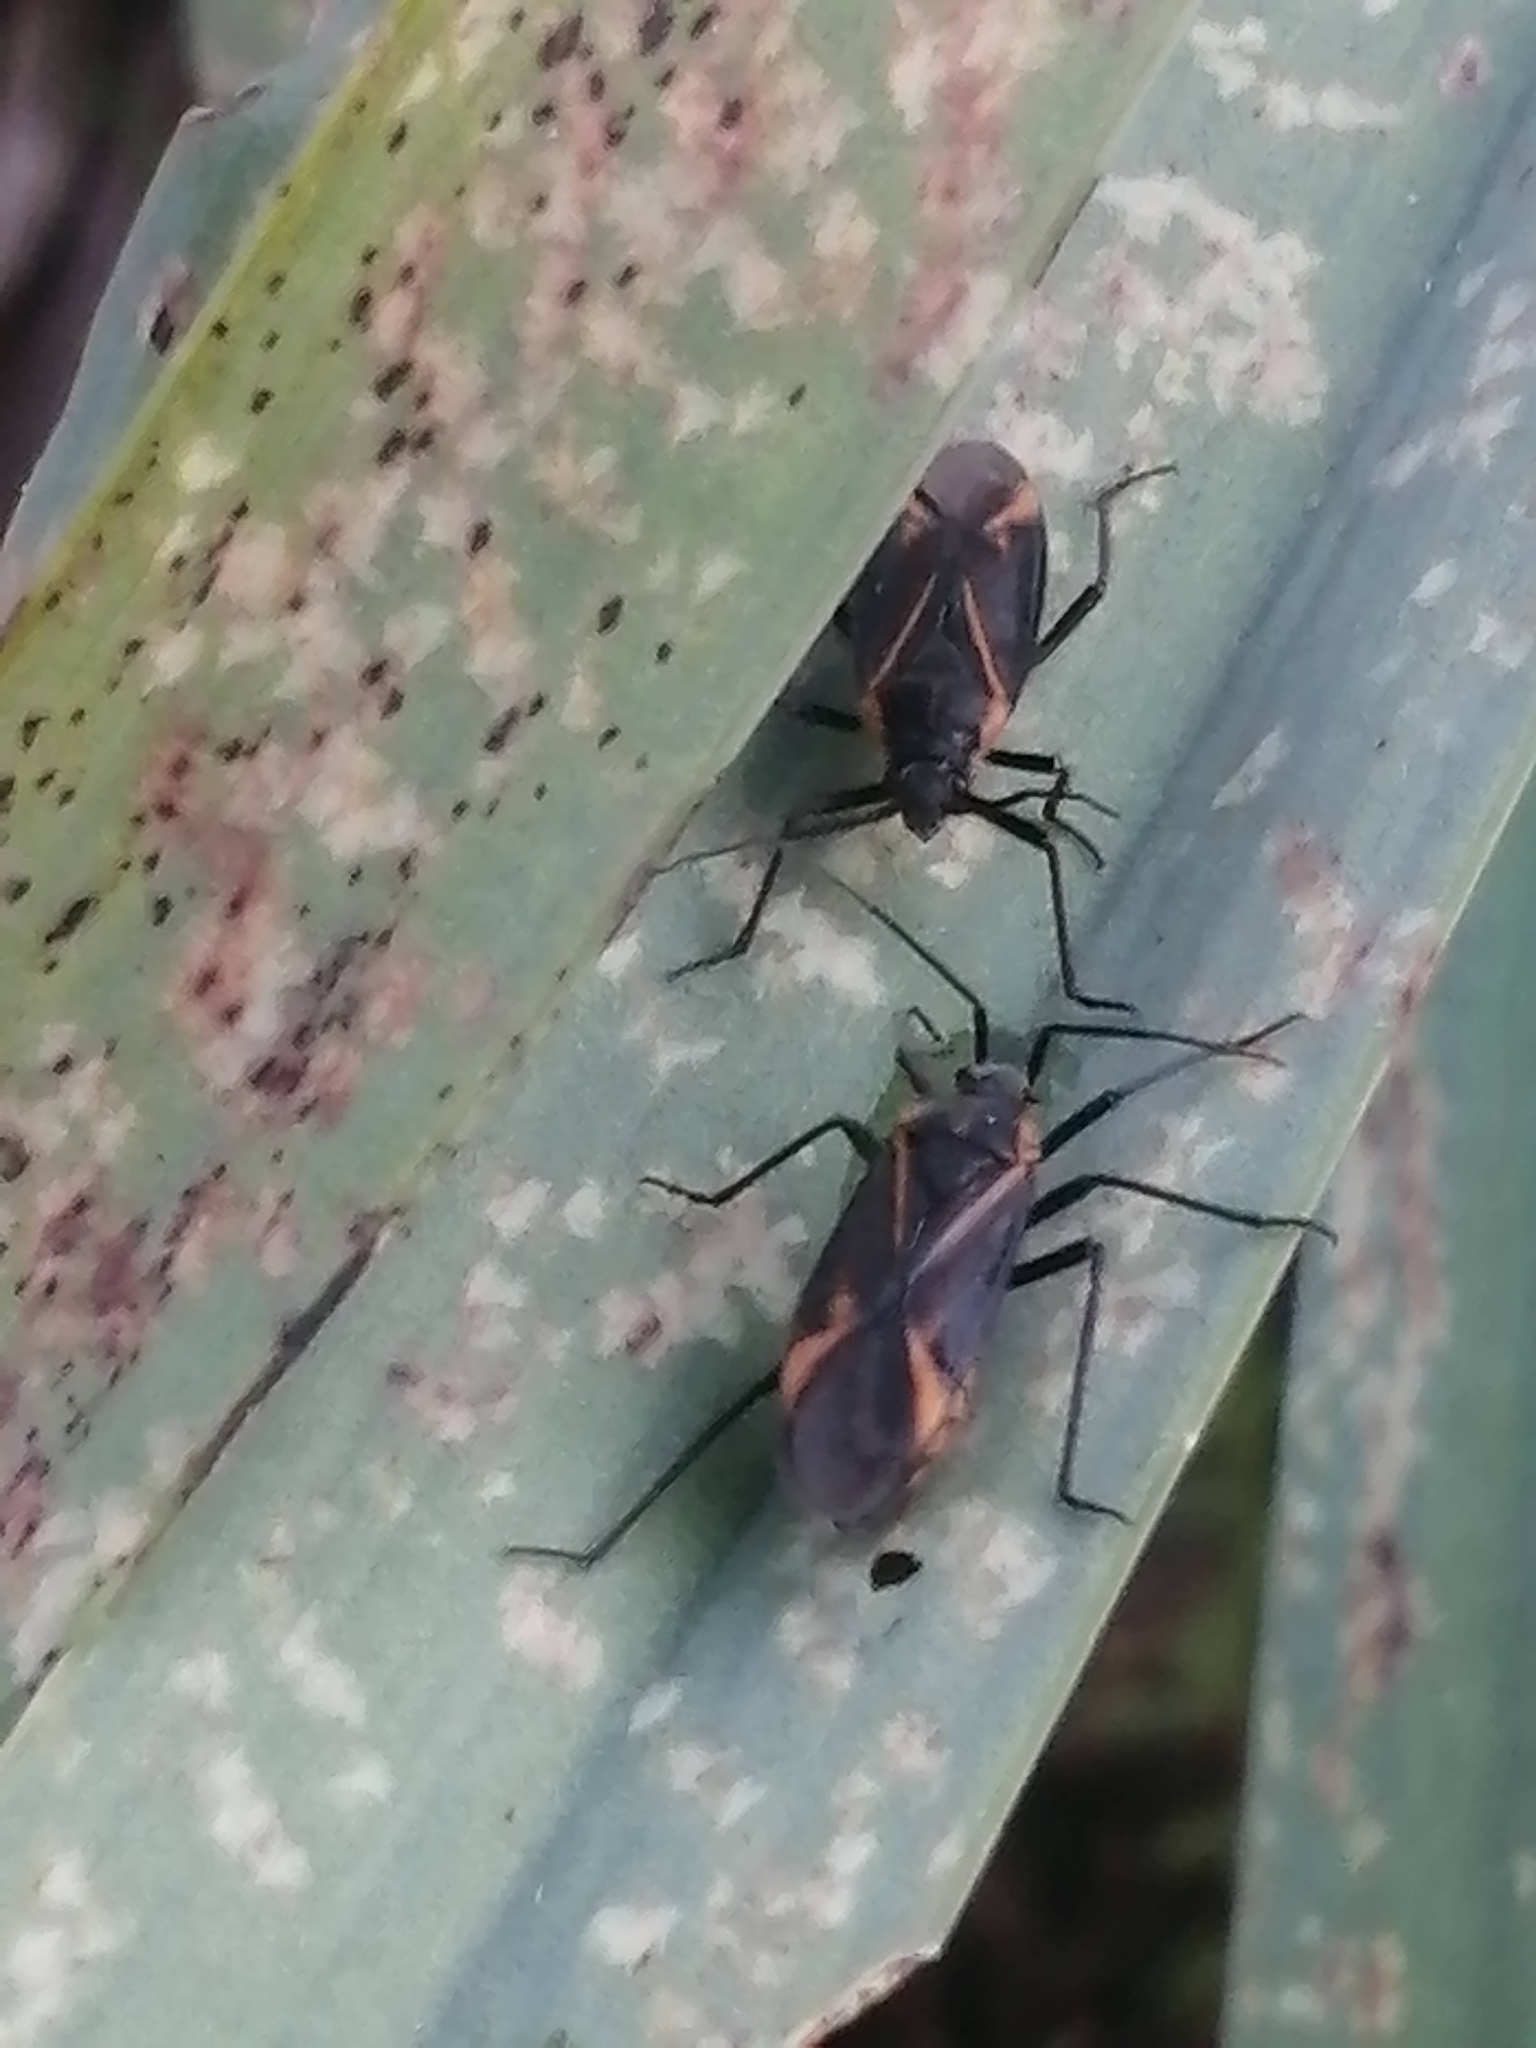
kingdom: Animalia
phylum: Arthropoda
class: Insecta
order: Hemiptera
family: Miridae
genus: Horistus
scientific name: Horistus turcomanus
